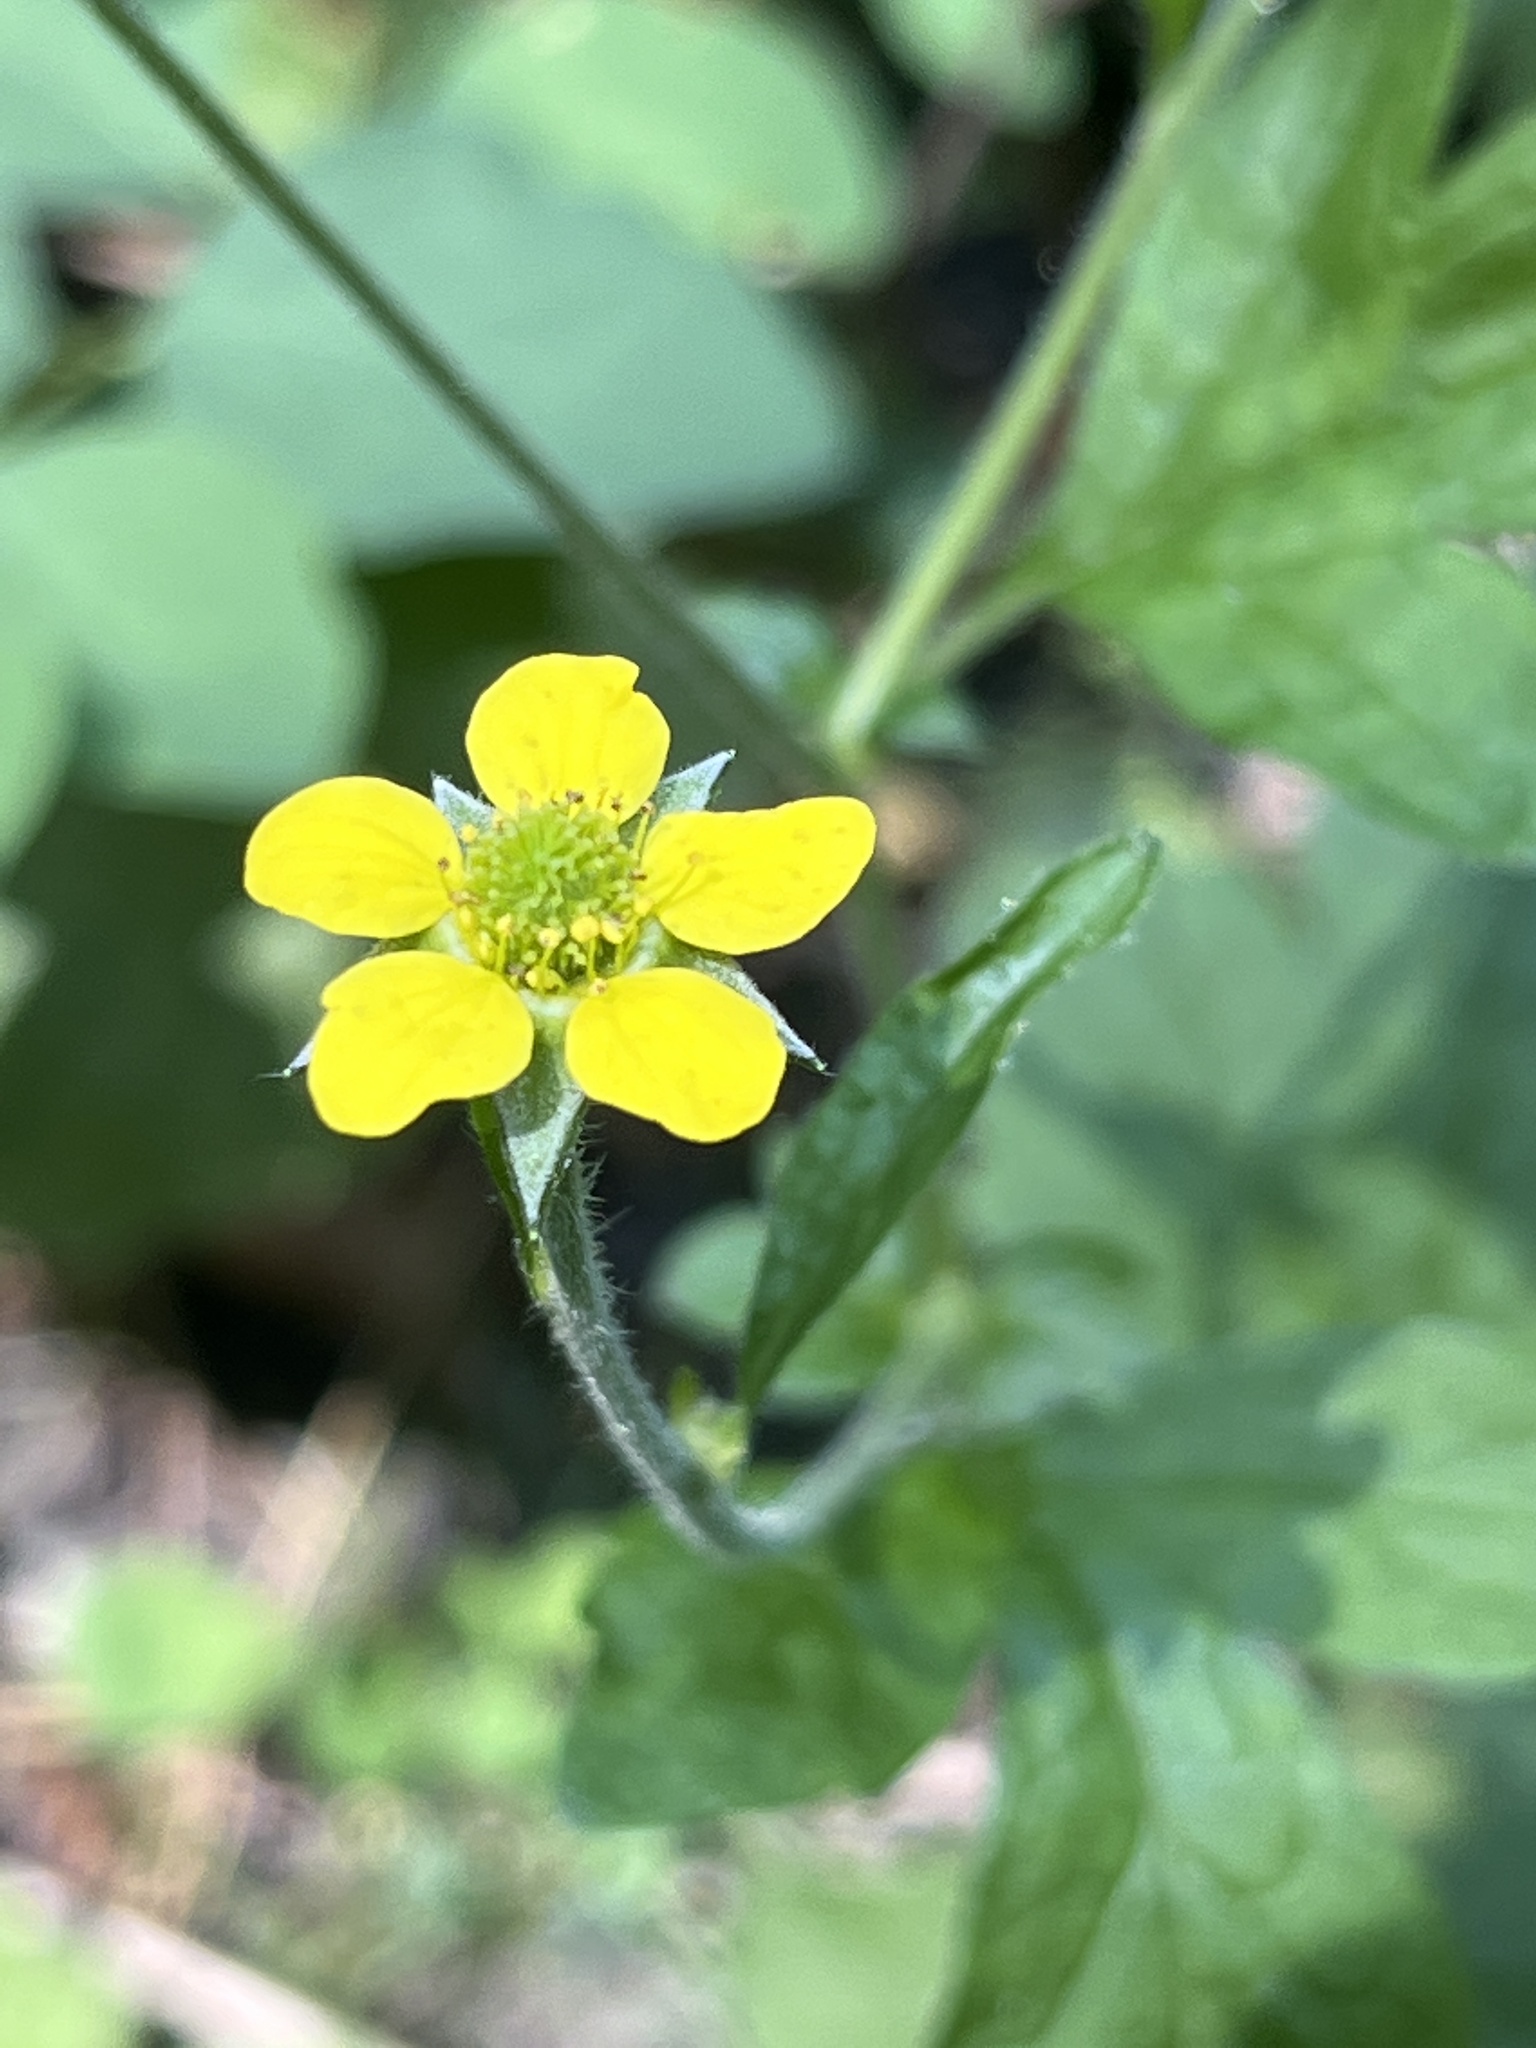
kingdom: Plantae
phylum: Tracheophyta
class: Magnoliopsida
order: Rosales
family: Rosaceae
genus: Geum
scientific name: Geum urbanum
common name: Wood avens
